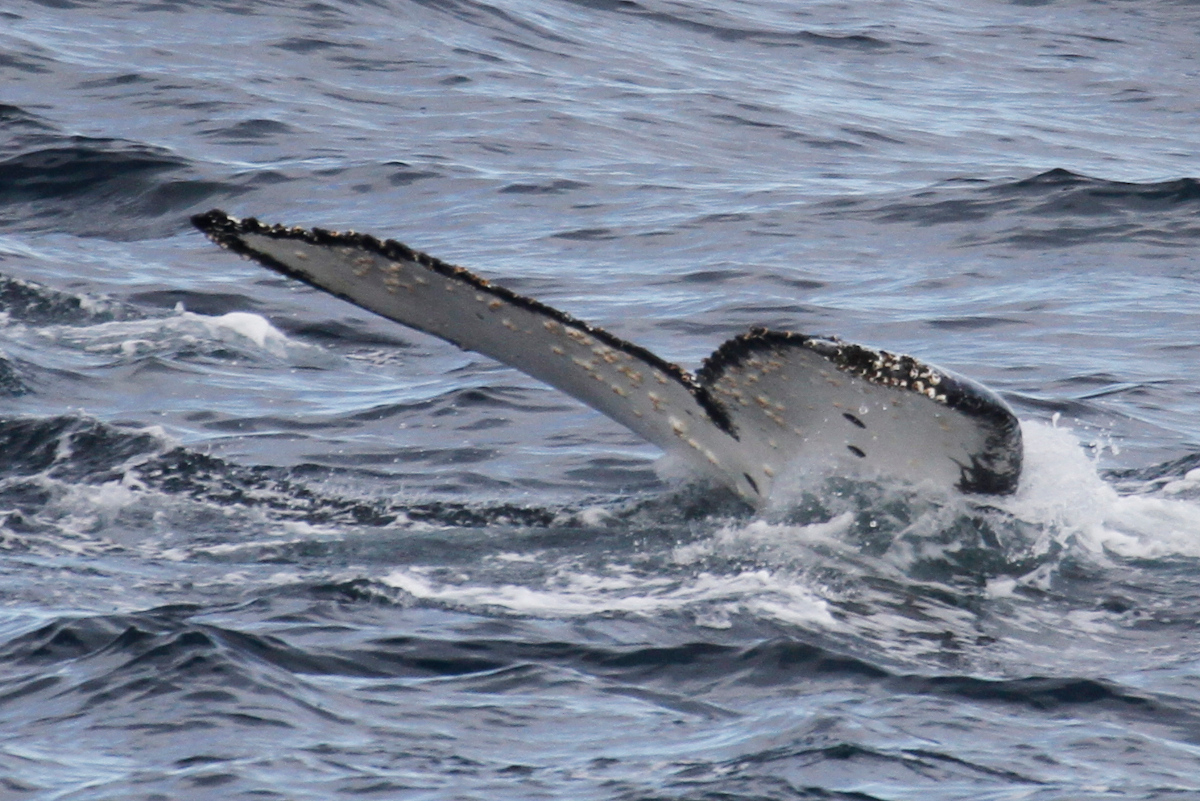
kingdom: Animalia
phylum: Chordata
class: Mammalia
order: Cetacea
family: Balaenopteridae
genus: Megaptera
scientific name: Megaptera novaeangliae
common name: Humpback whale
